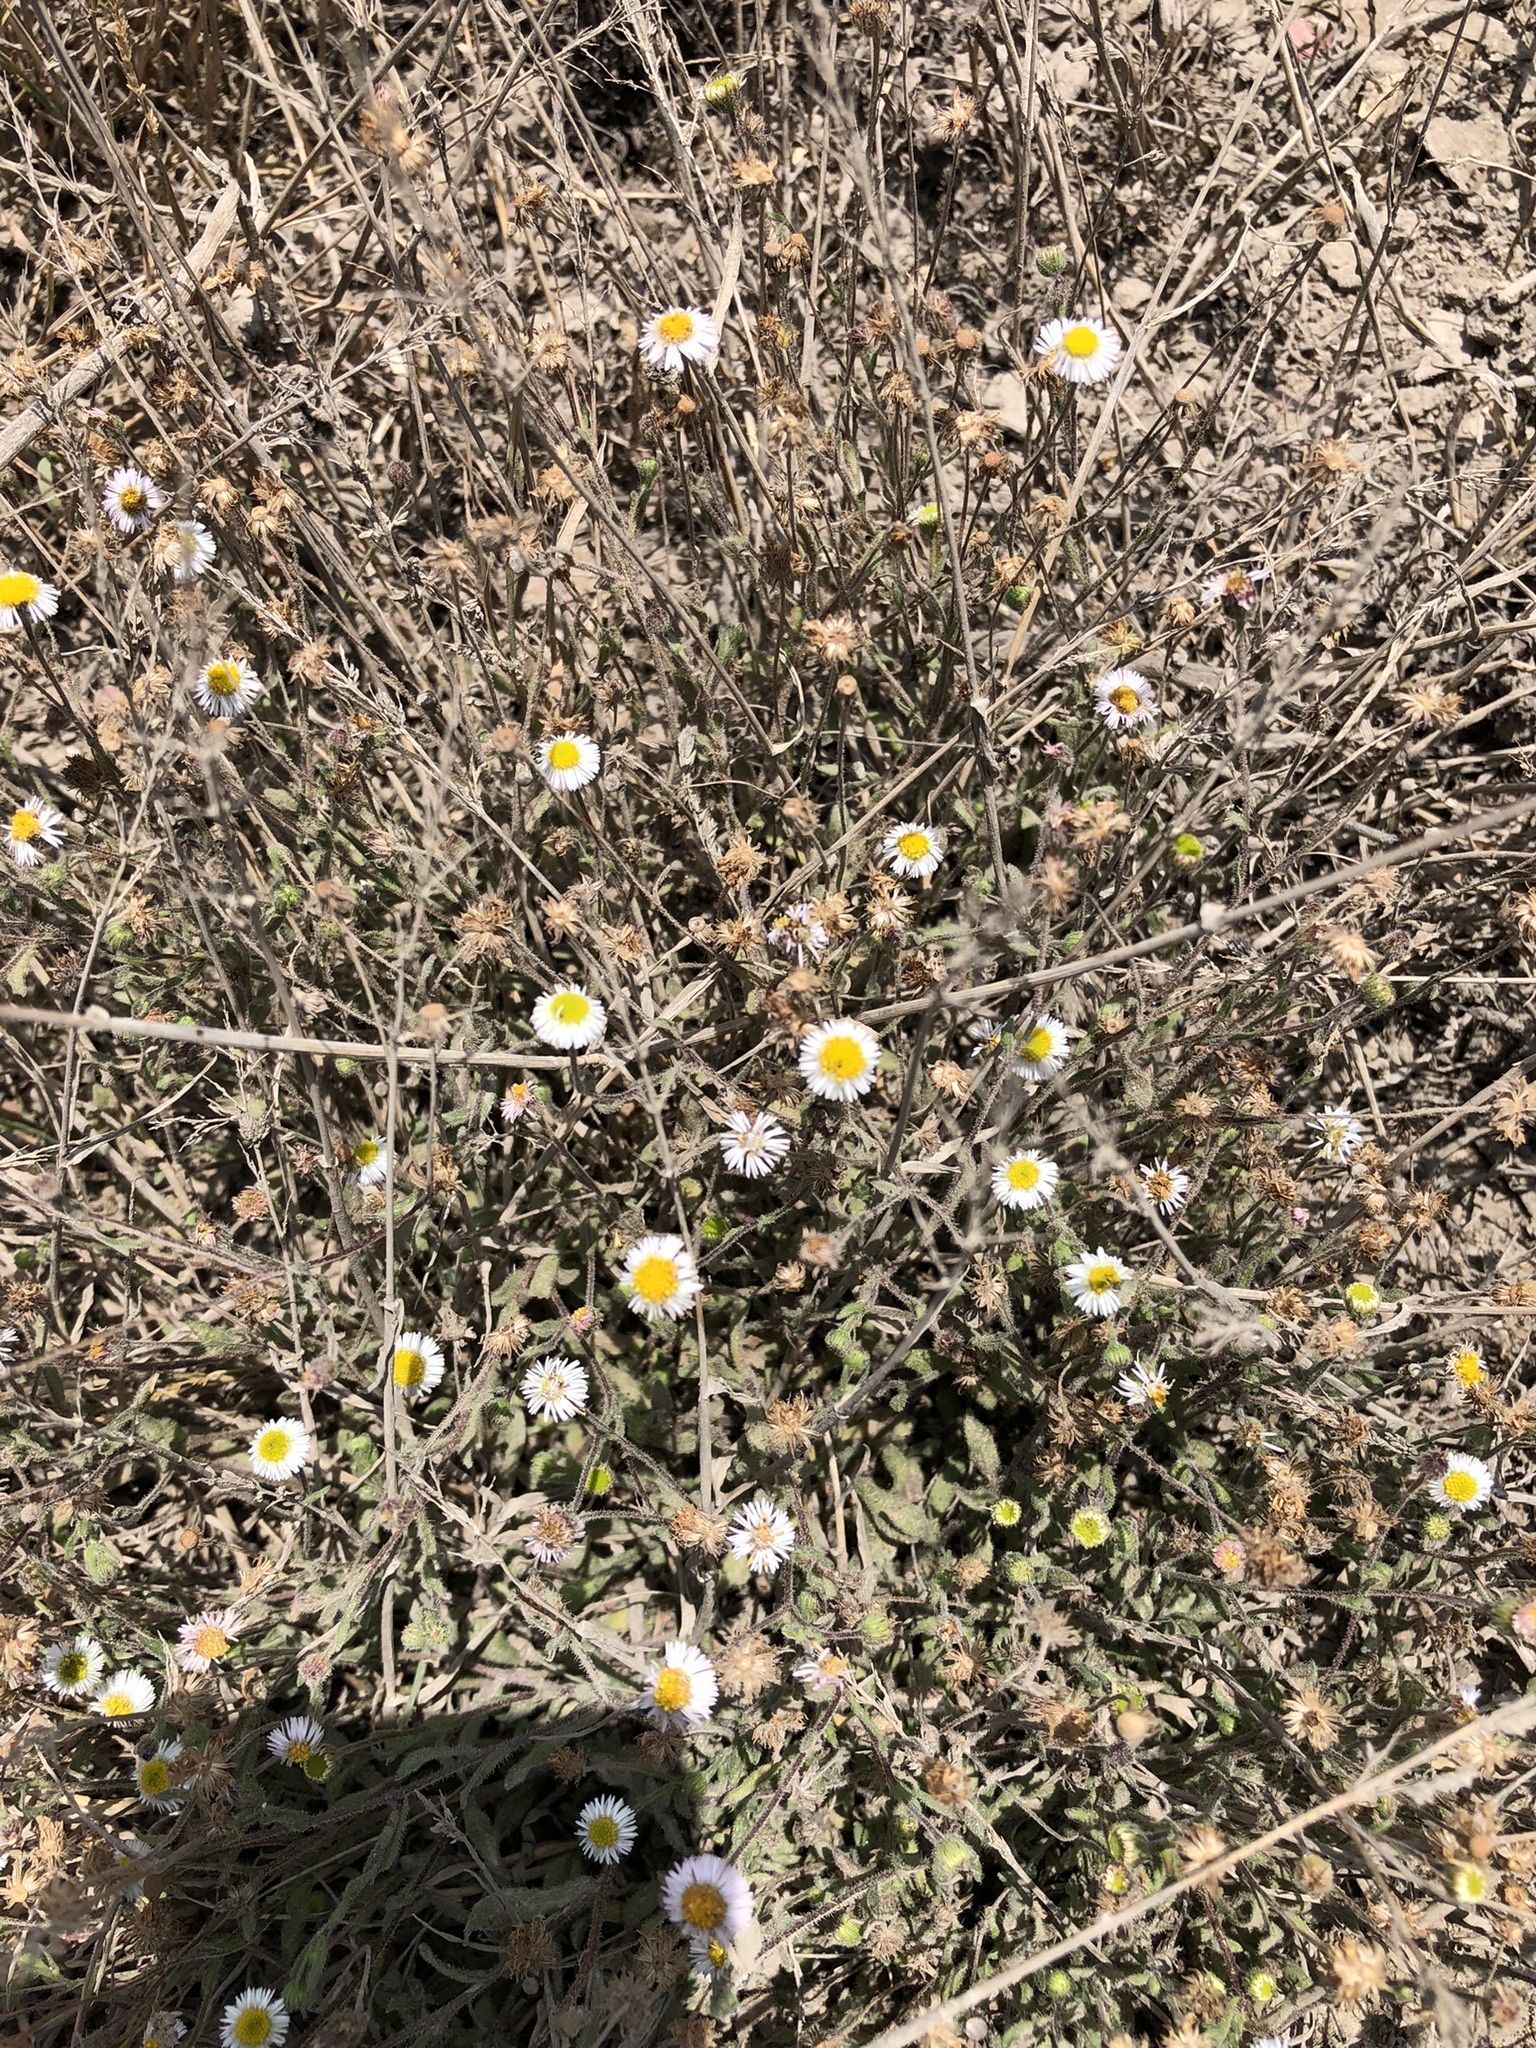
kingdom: Plantae
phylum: Tracheophyta
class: Magnoliopsida
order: Asterales
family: Asteraceae
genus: Erigeron
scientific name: Erigeron leptorhizon
